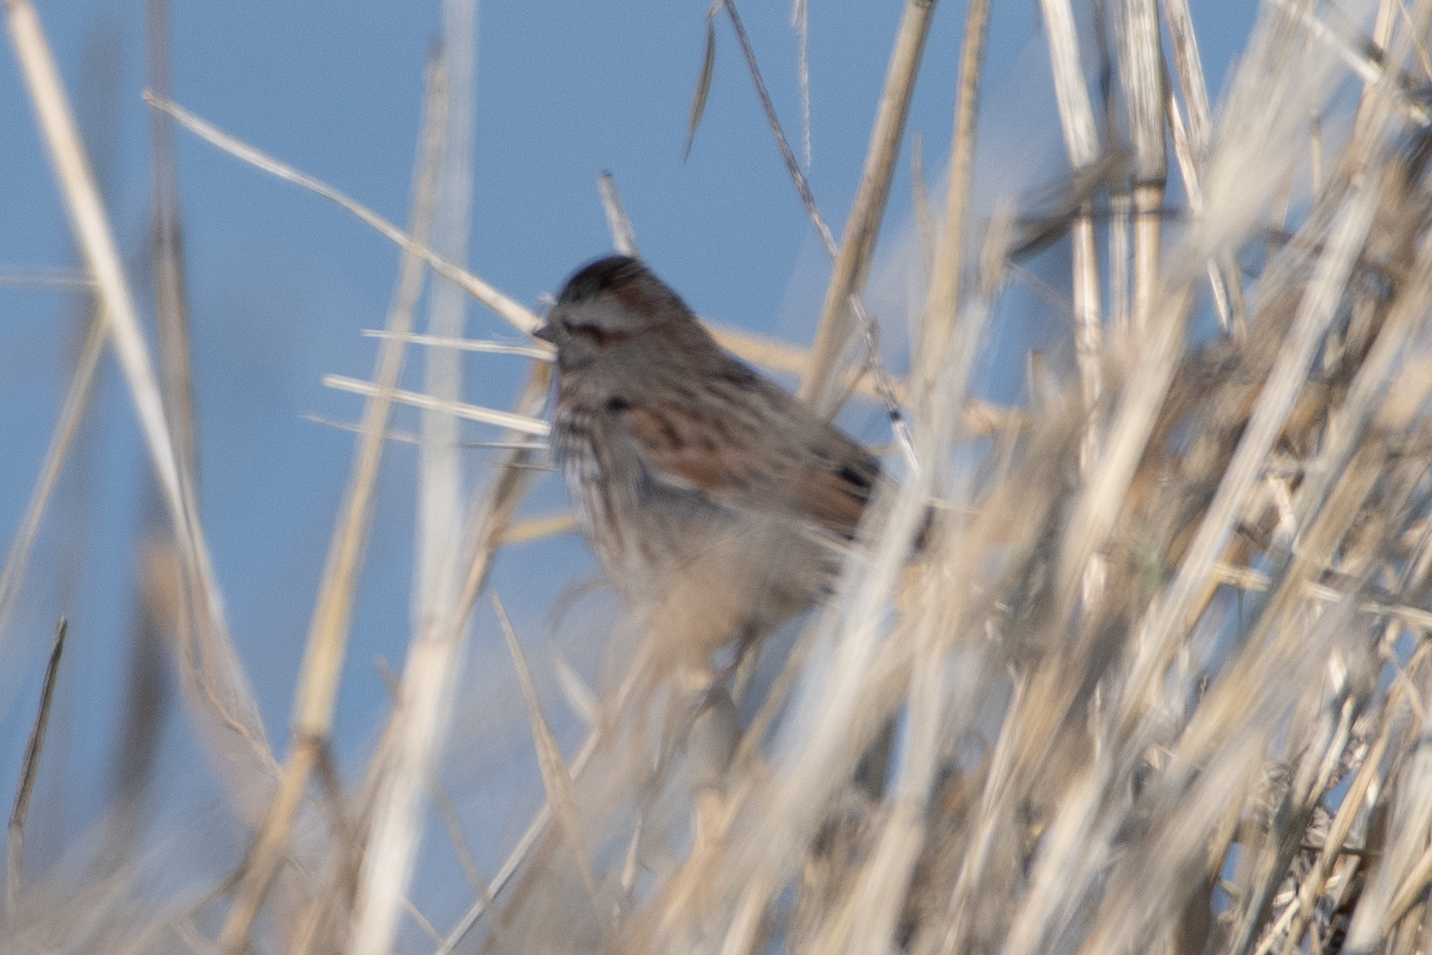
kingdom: Animalia
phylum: Chordata
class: Aves
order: Passeriformes
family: Passerellidae
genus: Melospiza
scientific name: Melospiza melodia
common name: Song sparrow
